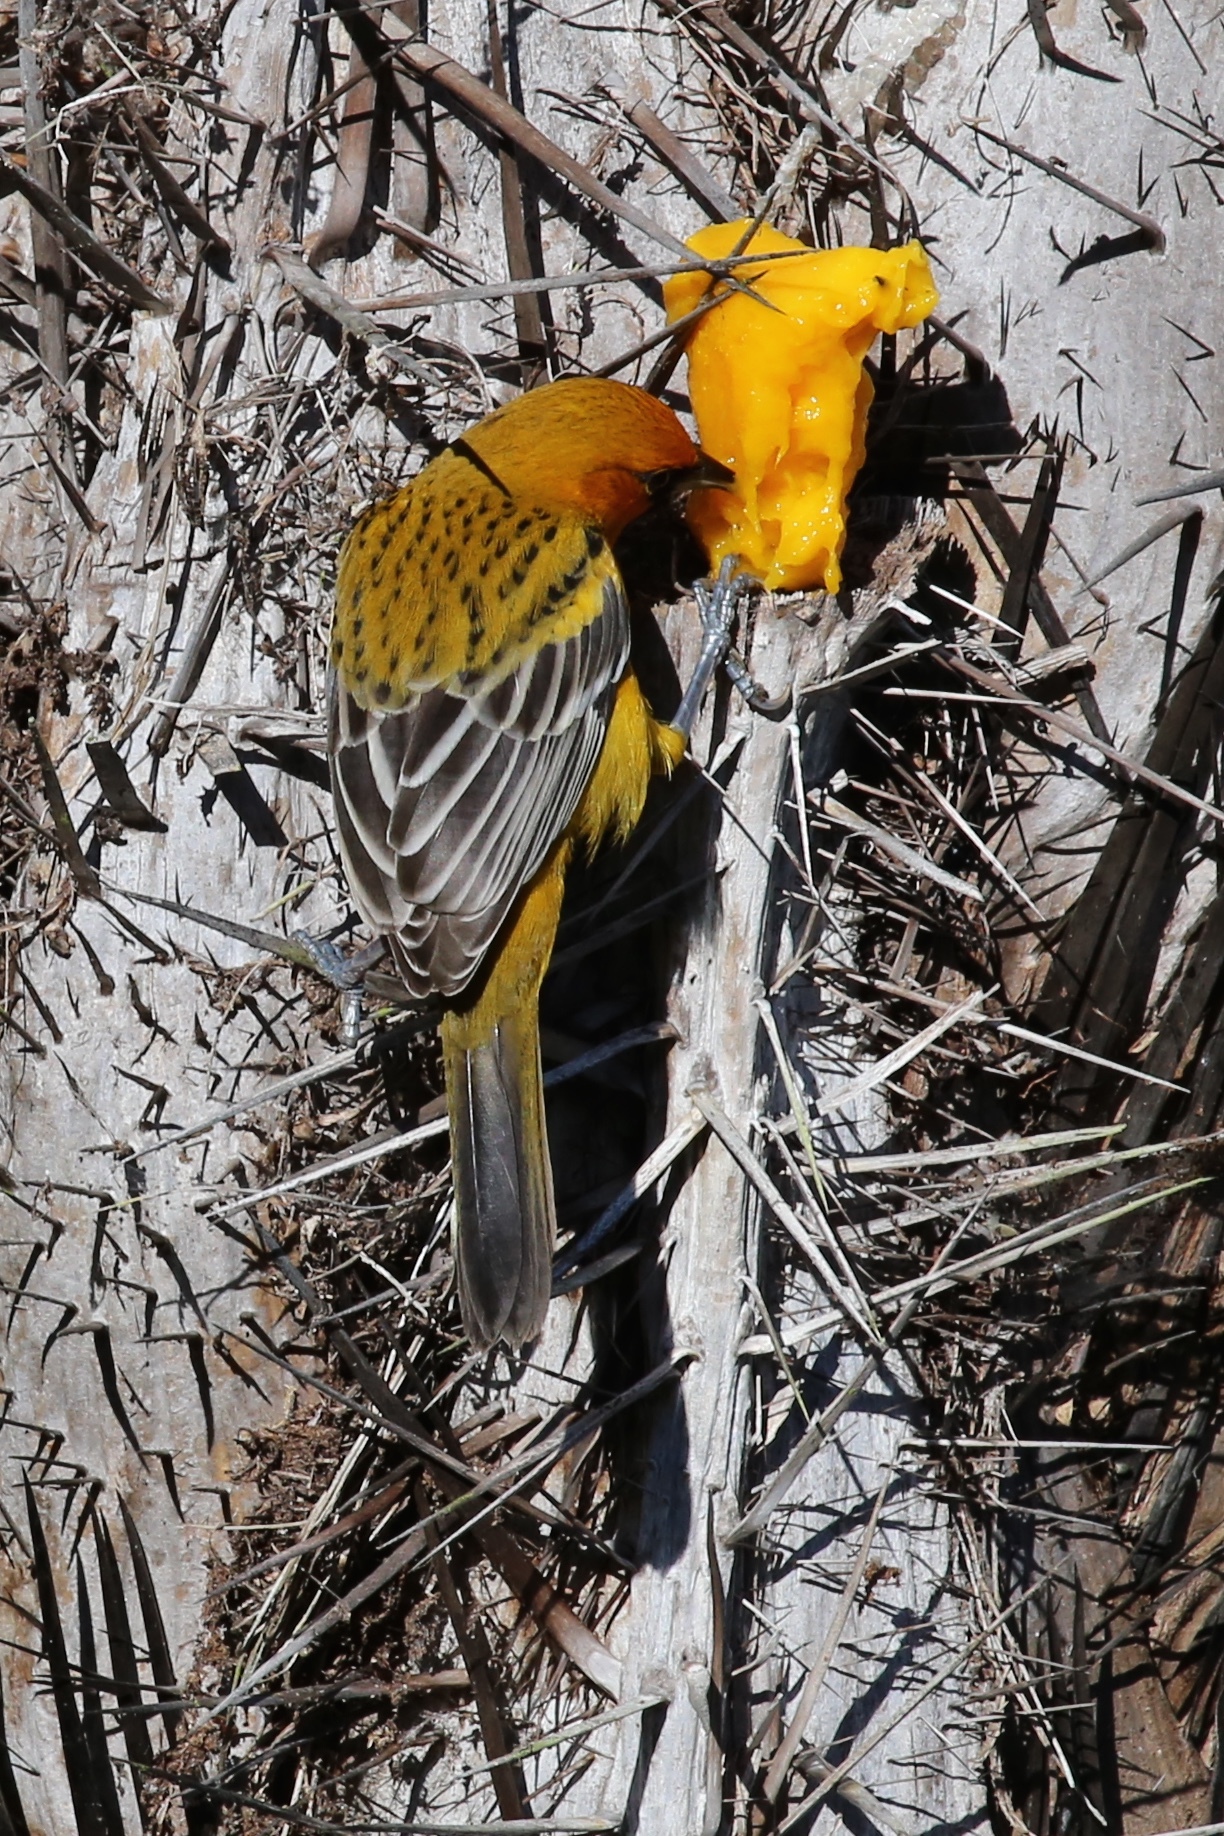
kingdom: Animalia
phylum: Chordata
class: Aves
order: Passeriformes
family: Icteridae
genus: Icterus
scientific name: Icterus pustulatus
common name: Streak-backed oriole
